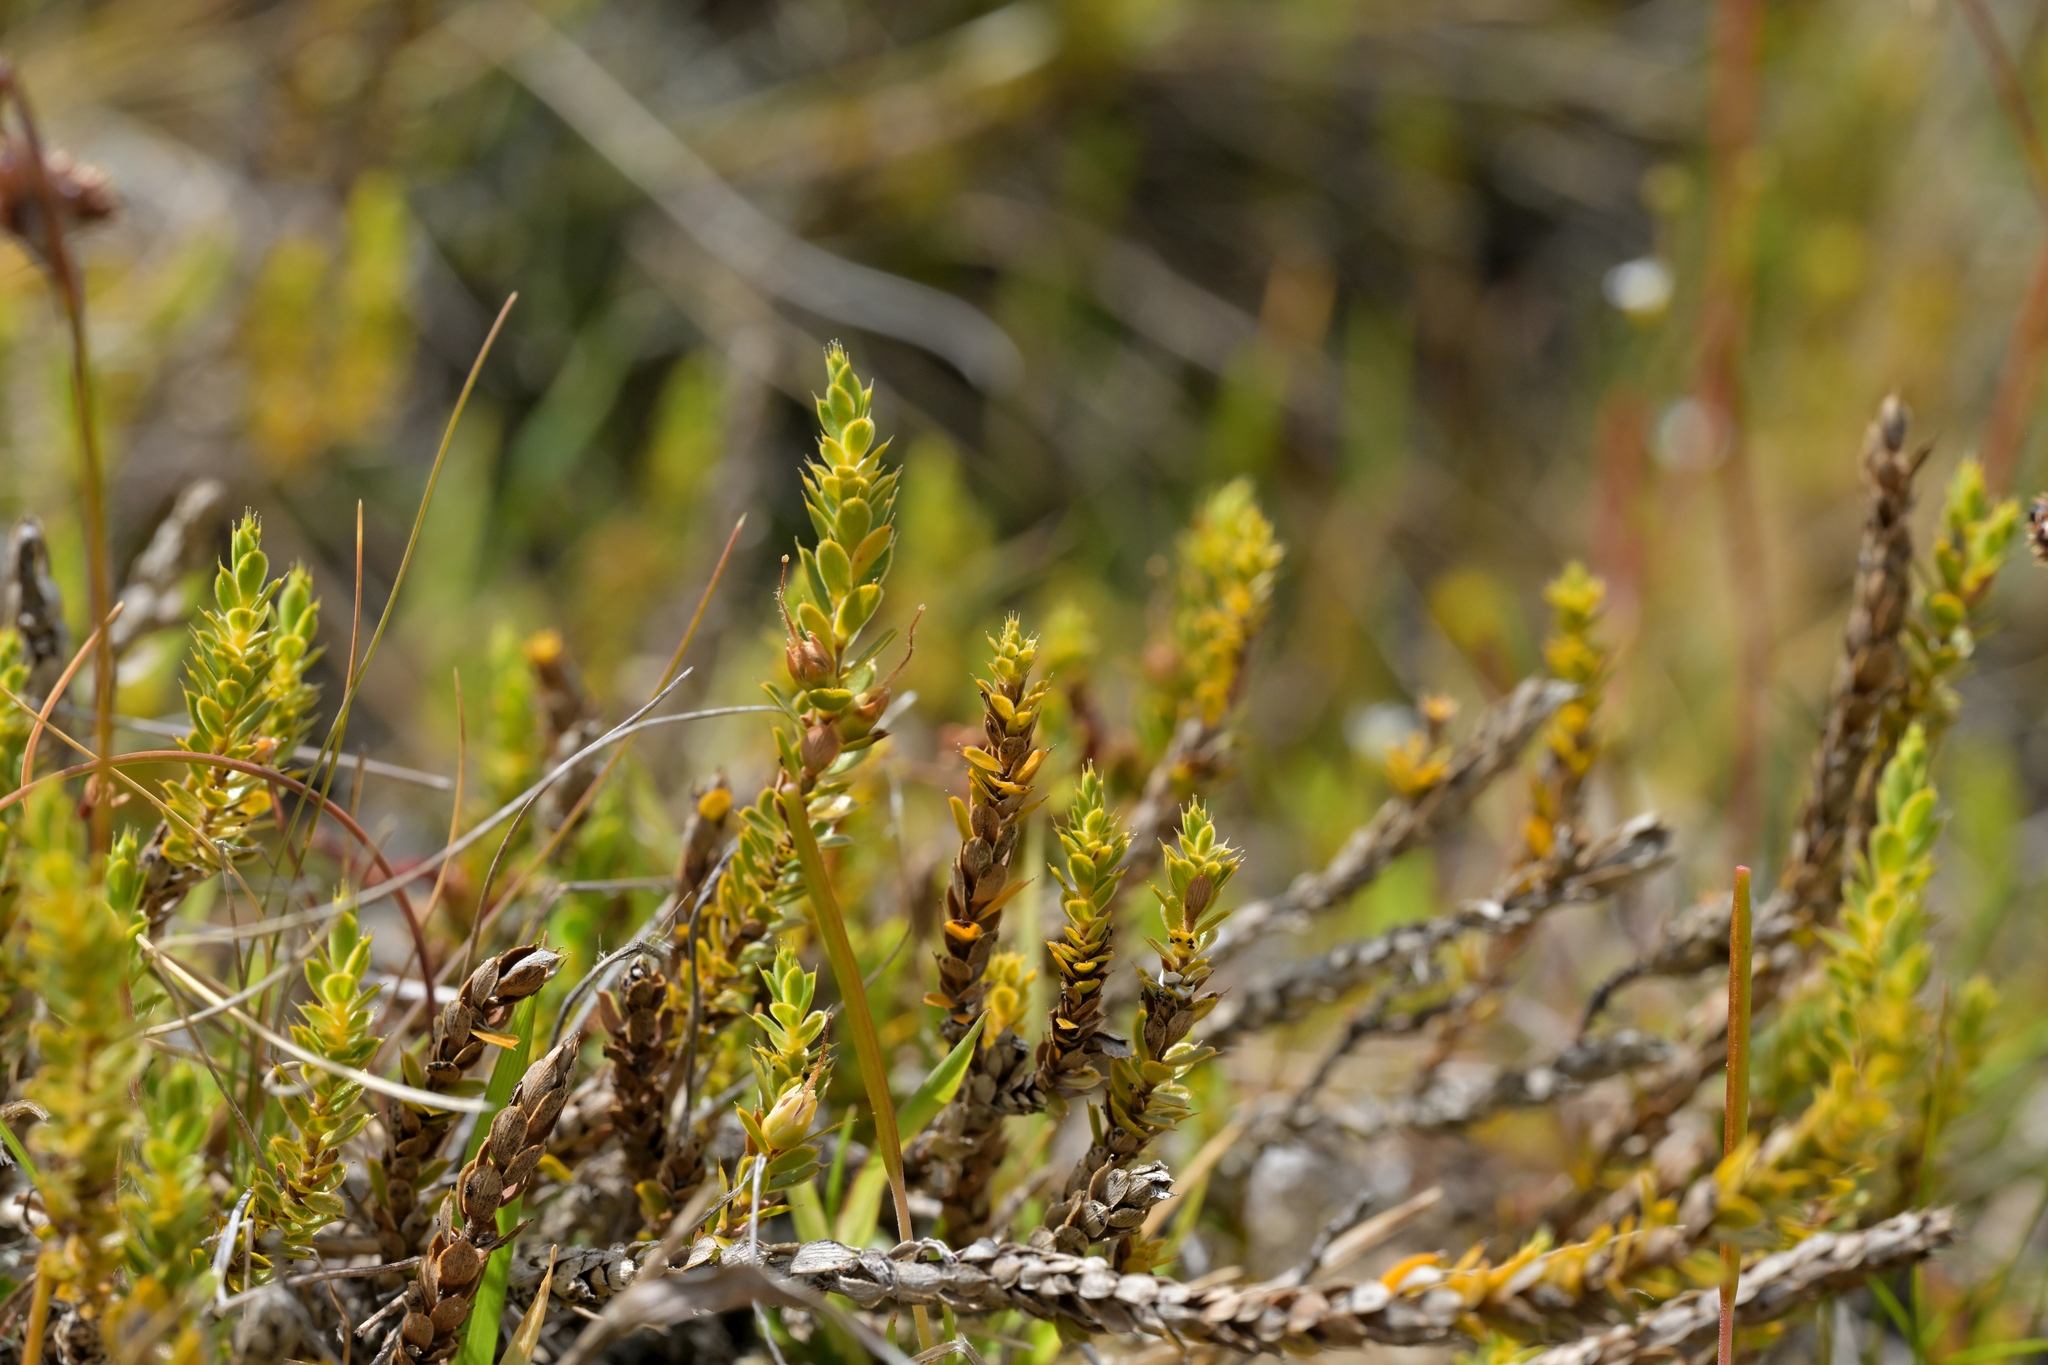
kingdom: Plantae
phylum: Tracheophyta
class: Magnoliopsida
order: Ericales
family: Ericaceae
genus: Styphelia
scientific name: Styphelia nesophila
